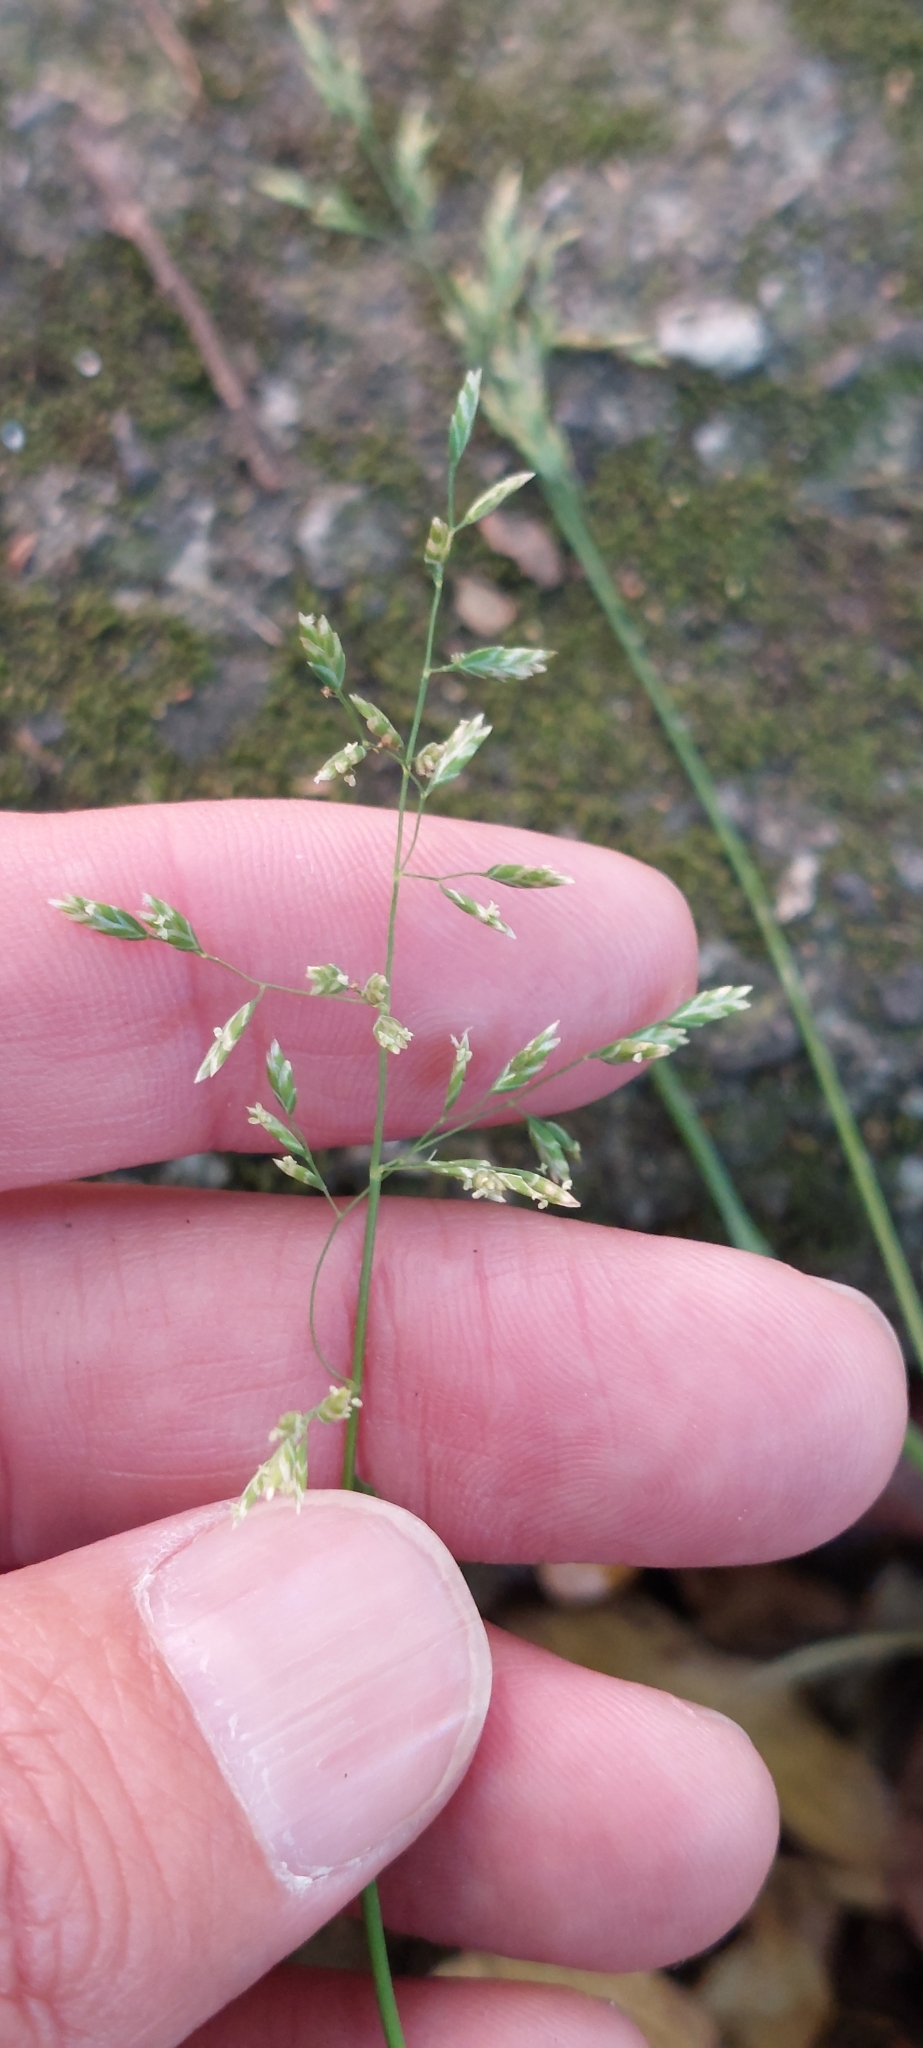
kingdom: Plantae
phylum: Tracheophyta
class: Liliopsida
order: Poales
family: Poaceae
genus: Poa
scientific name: Poa annua
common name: Annual bluegrass
